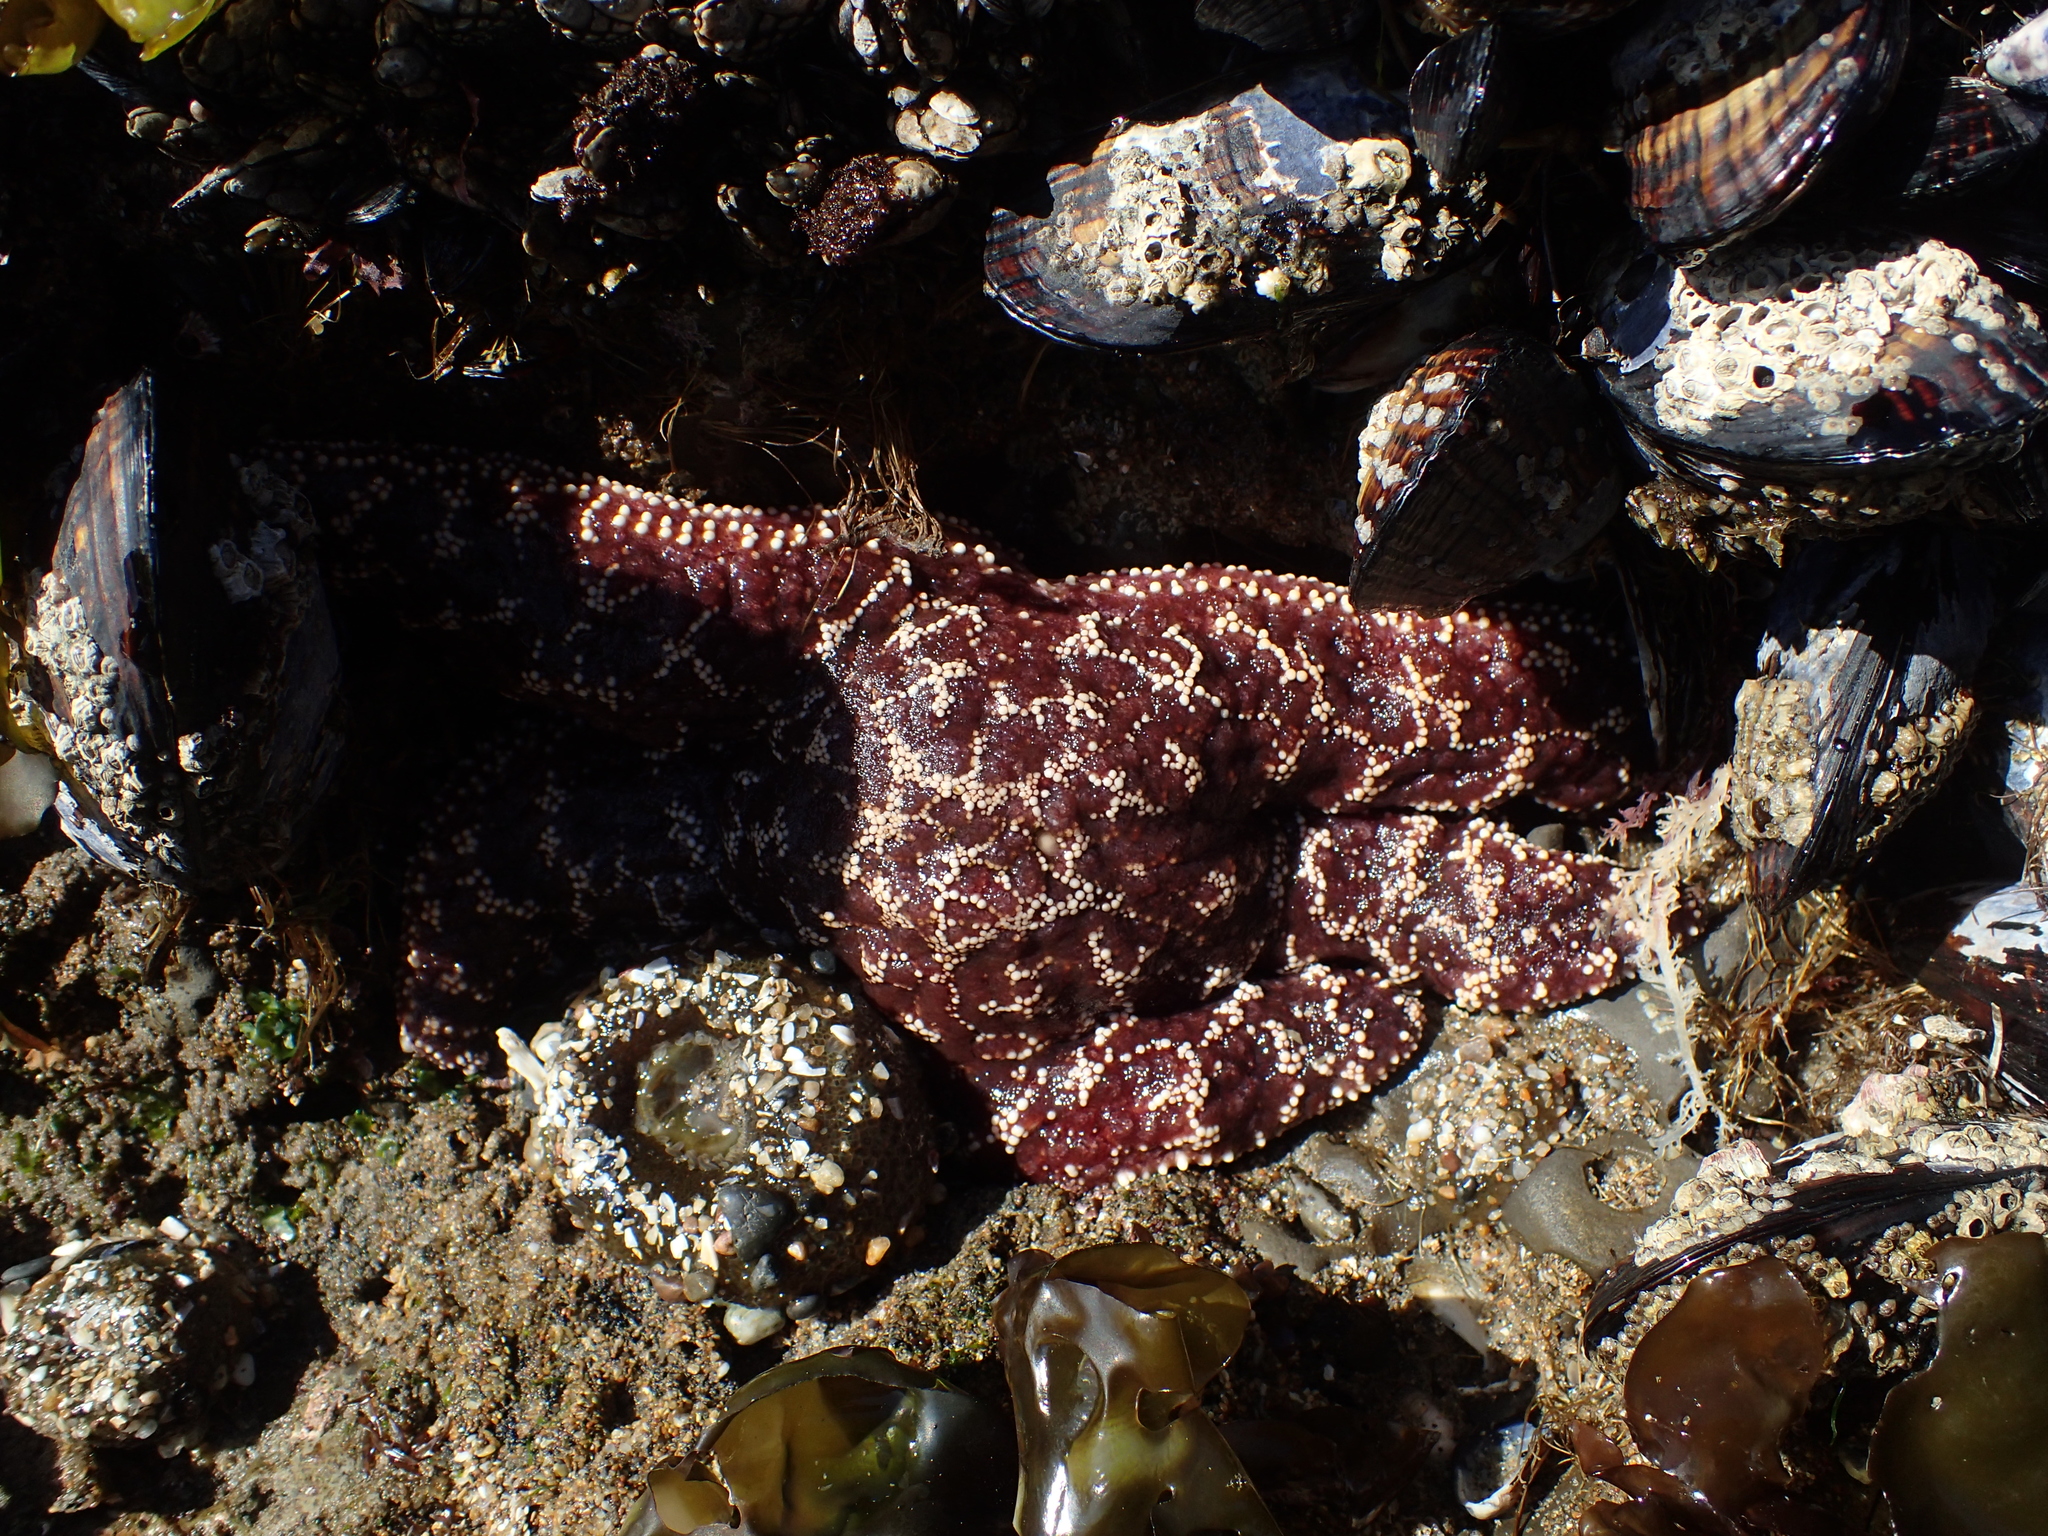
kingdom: Animalia
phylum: Echinodermata
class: Asteroidea
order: Forcipulatida
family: Asteriidae
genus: Pisaster
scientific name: Pisaster ochraceus
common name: Ochre stars
